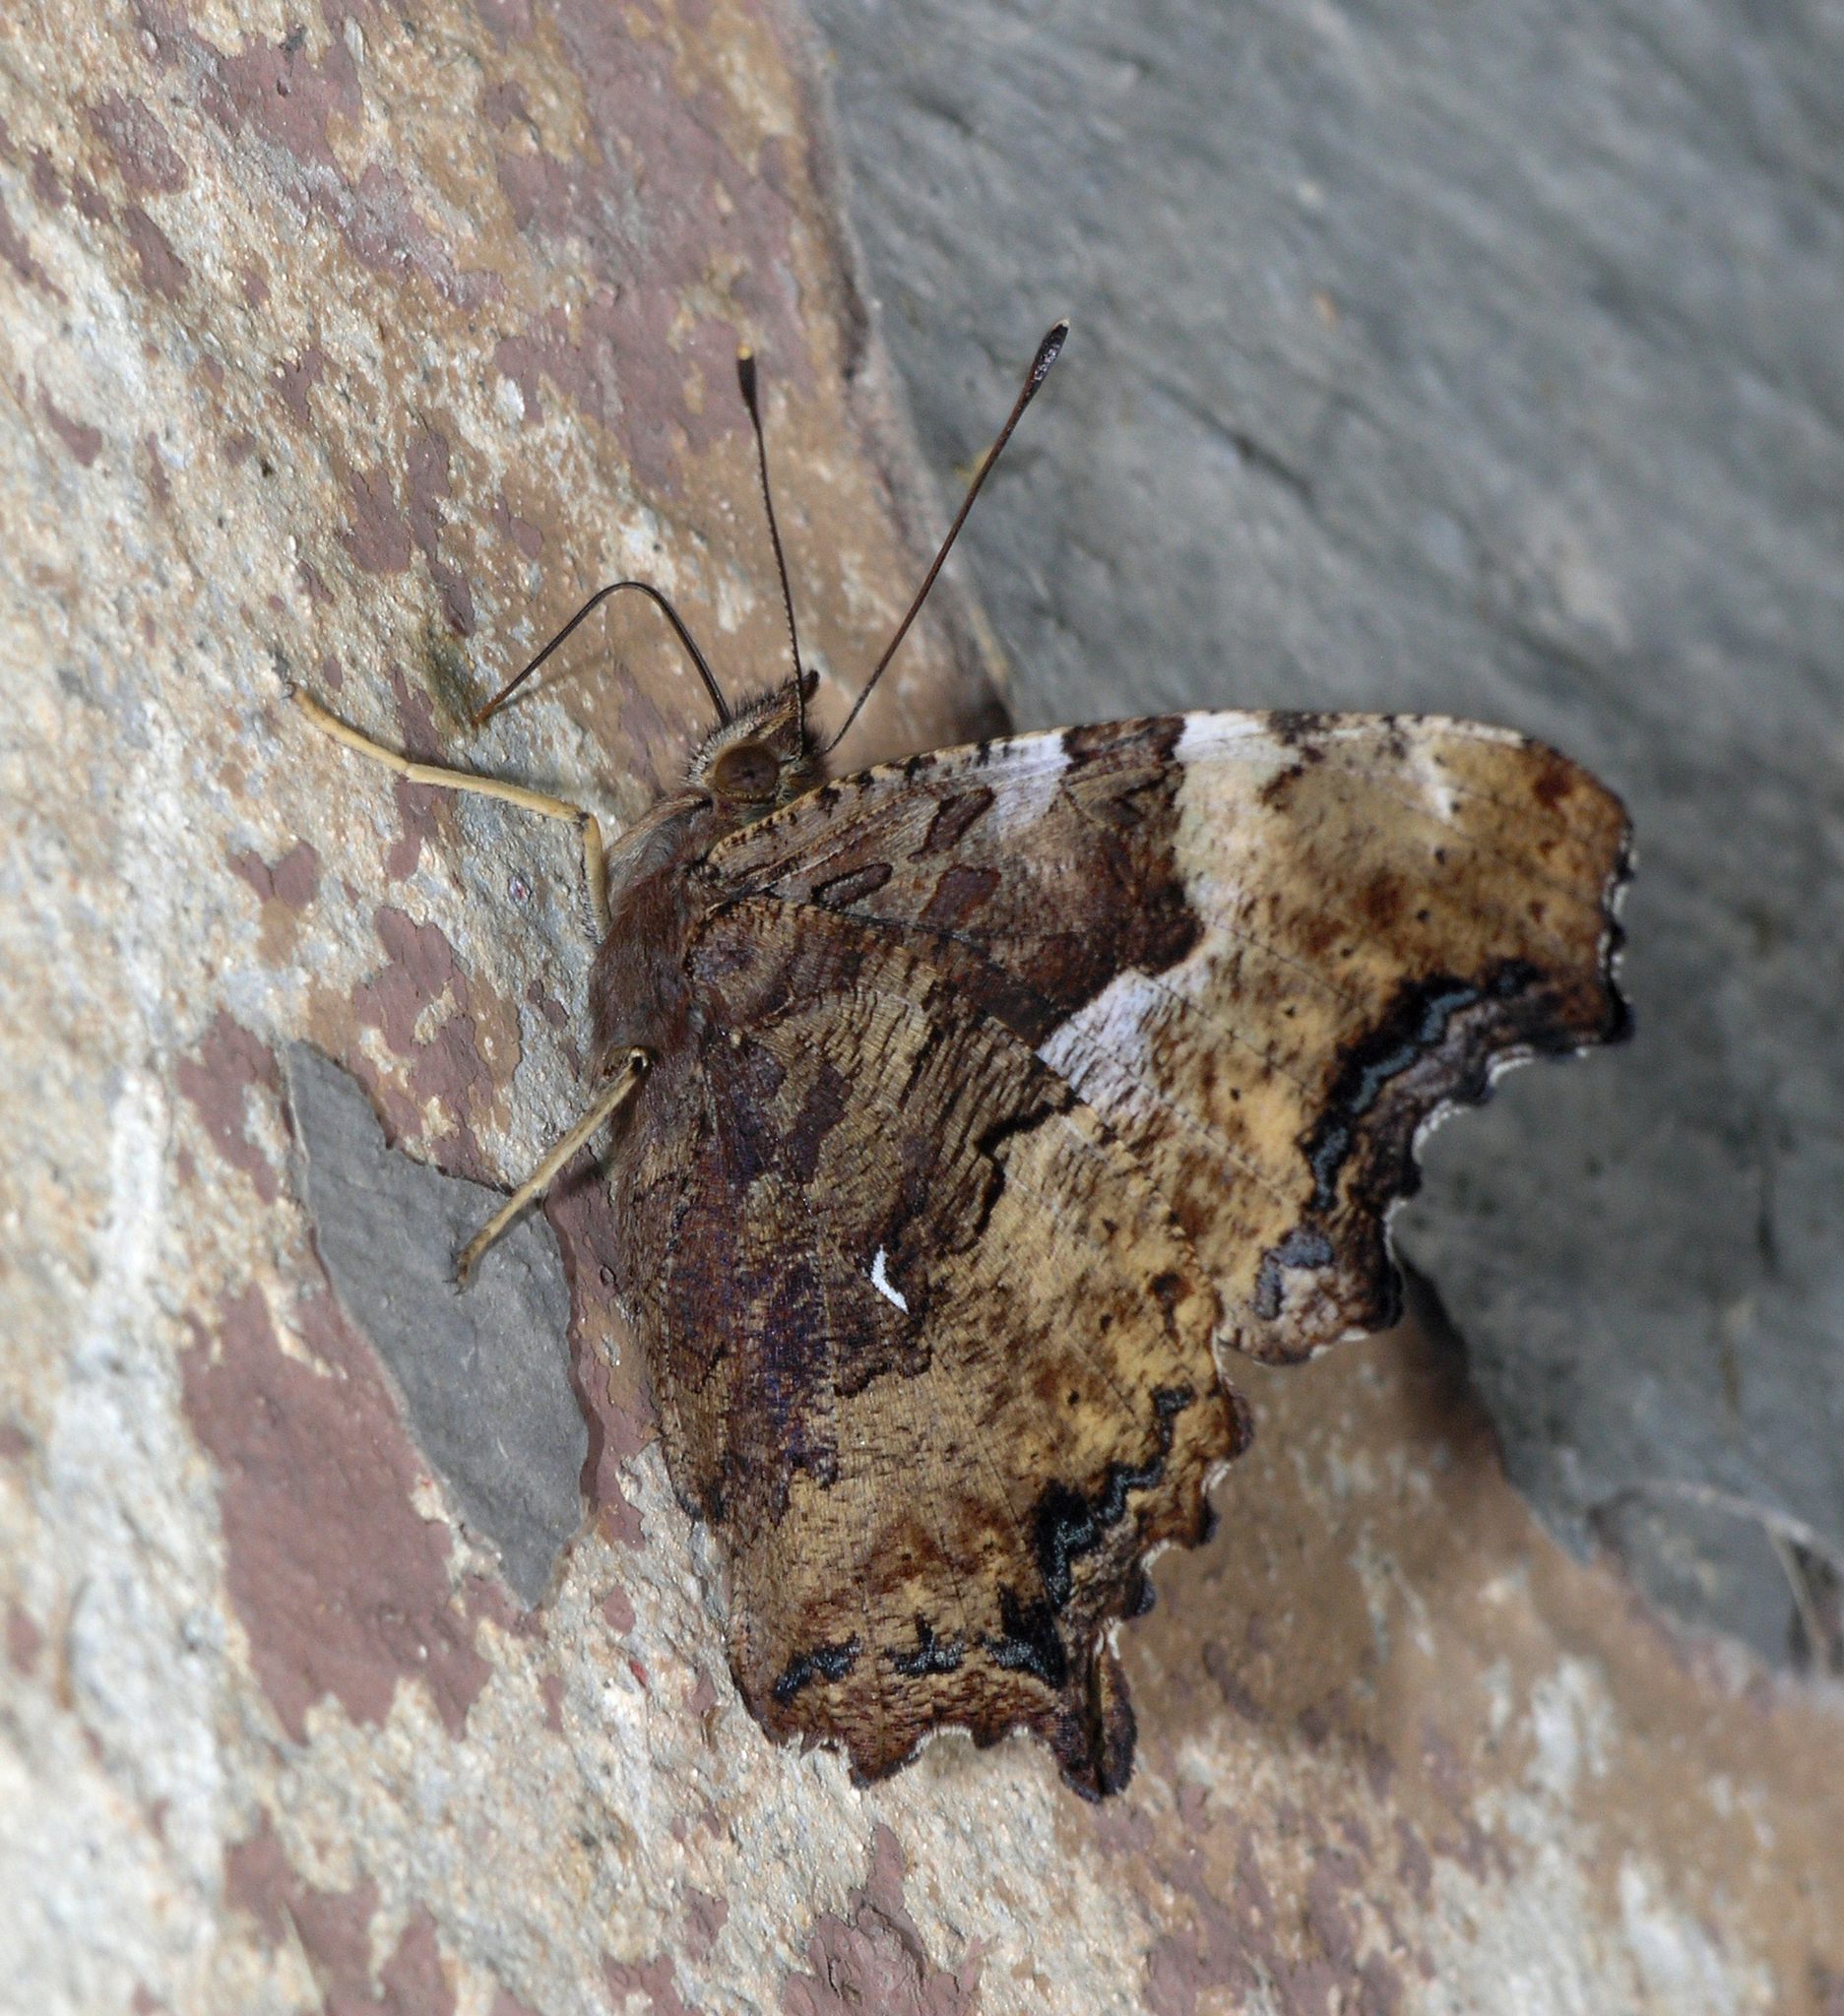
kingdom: Animalia
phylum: Arthropoda
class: Insecta
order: Lepidoptera
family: Nymphalidae
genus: Polygonia
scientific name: Polygonia vaualbum
